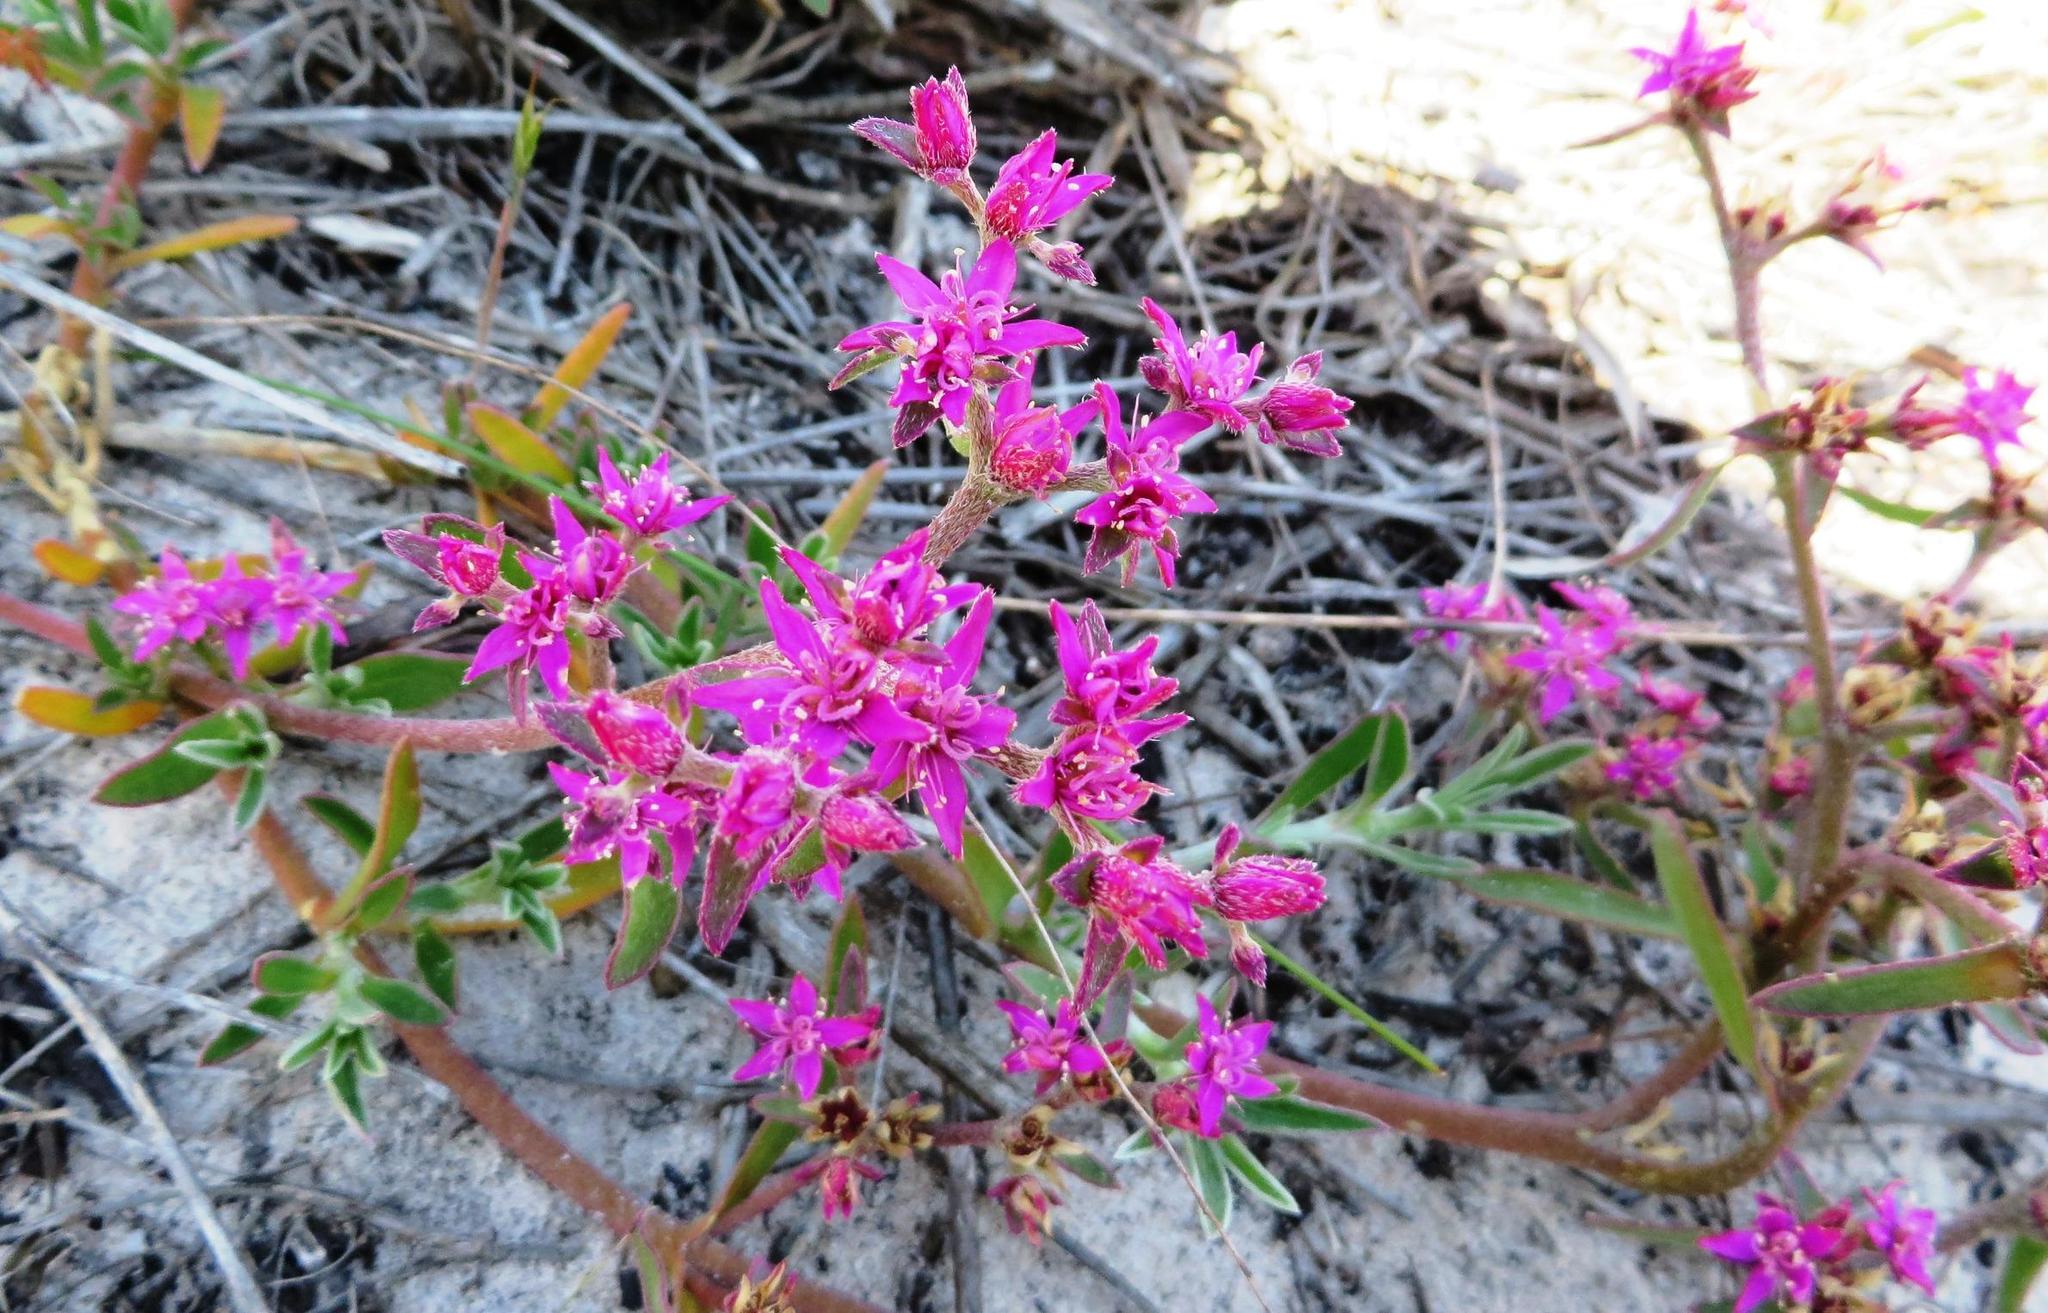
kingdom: Plantae
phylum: Tracheophyta
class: Magnoliopsida
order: Caryophyllales
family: Aizoaceae
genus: Aizoon
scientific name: Aizoon paniculatum
